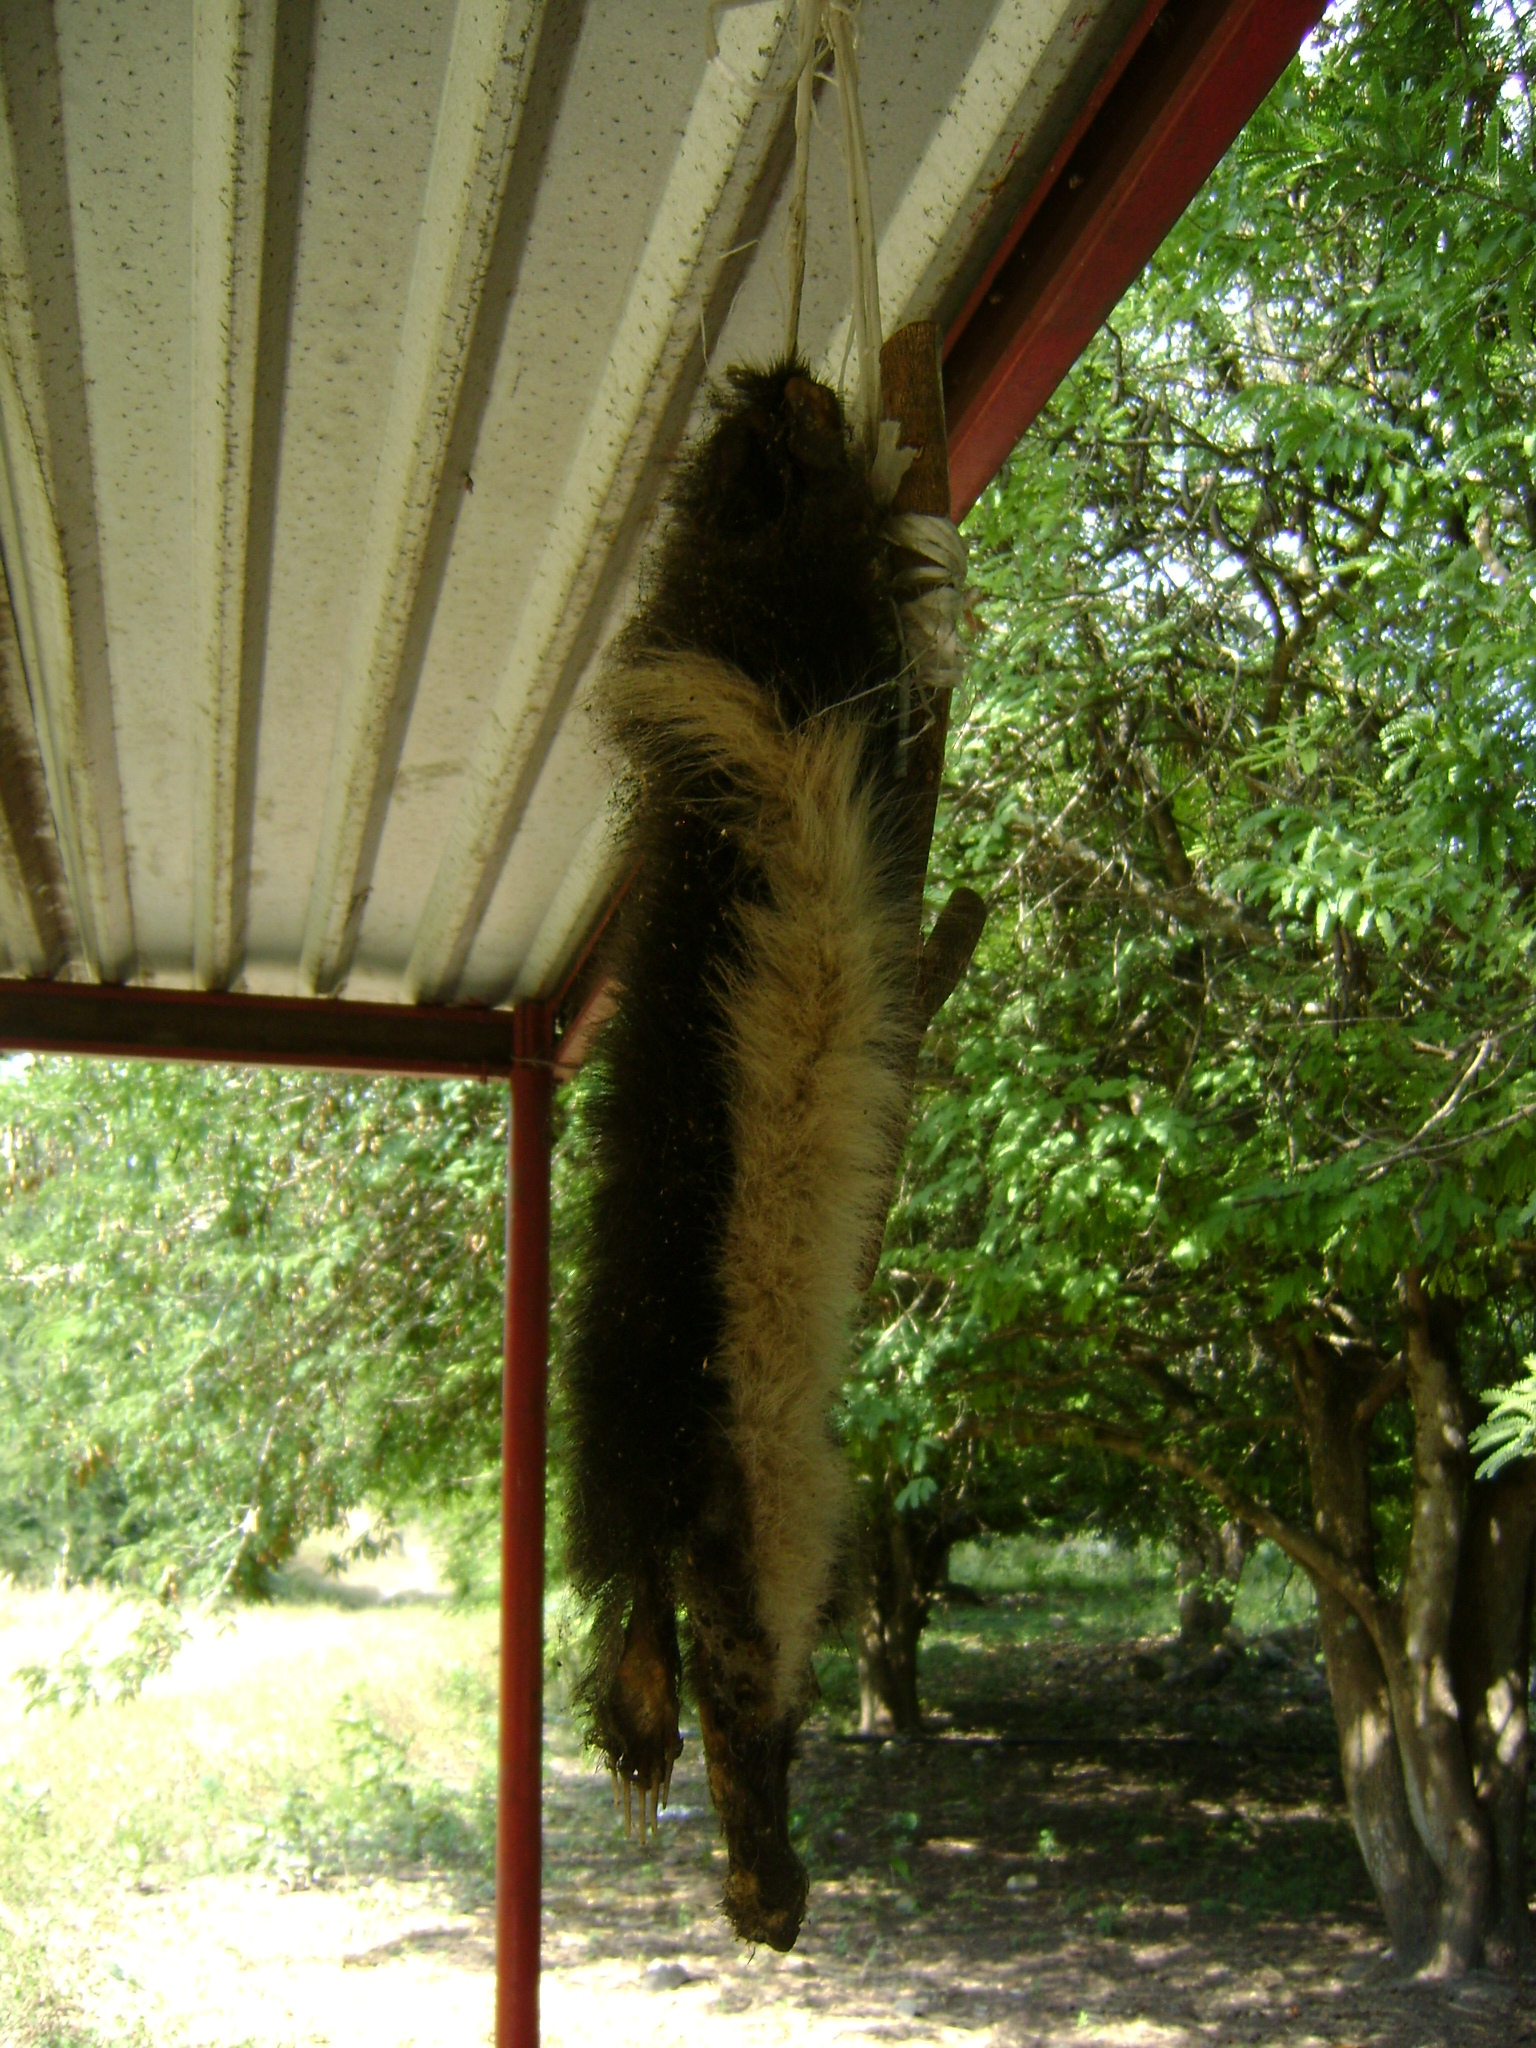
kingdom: Animalia
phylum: Chordata
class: Mammalia
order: Carnivora
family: Mephitidae
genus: Conepatus
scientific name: Conepatus leuconotus
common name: Eastern hog-nosed skunk
